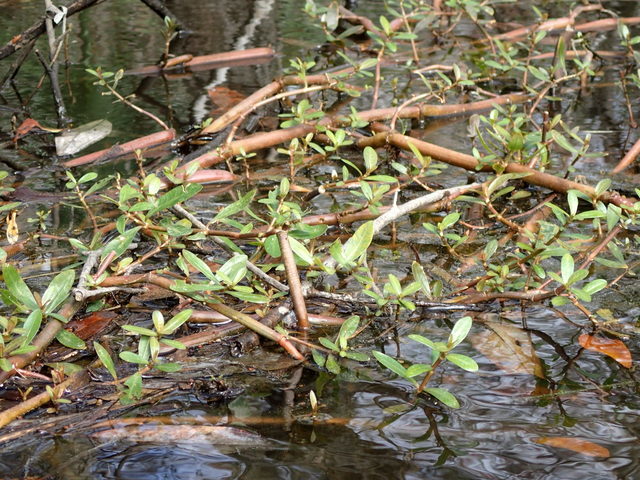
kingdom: Plantae
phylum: Tracheophyta
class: Magnoliopsida
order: Caryophyllales
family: Amaranthaceae
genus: Alternanthera
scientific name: Alternanthera philoxeroides
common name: Alligatorweed
